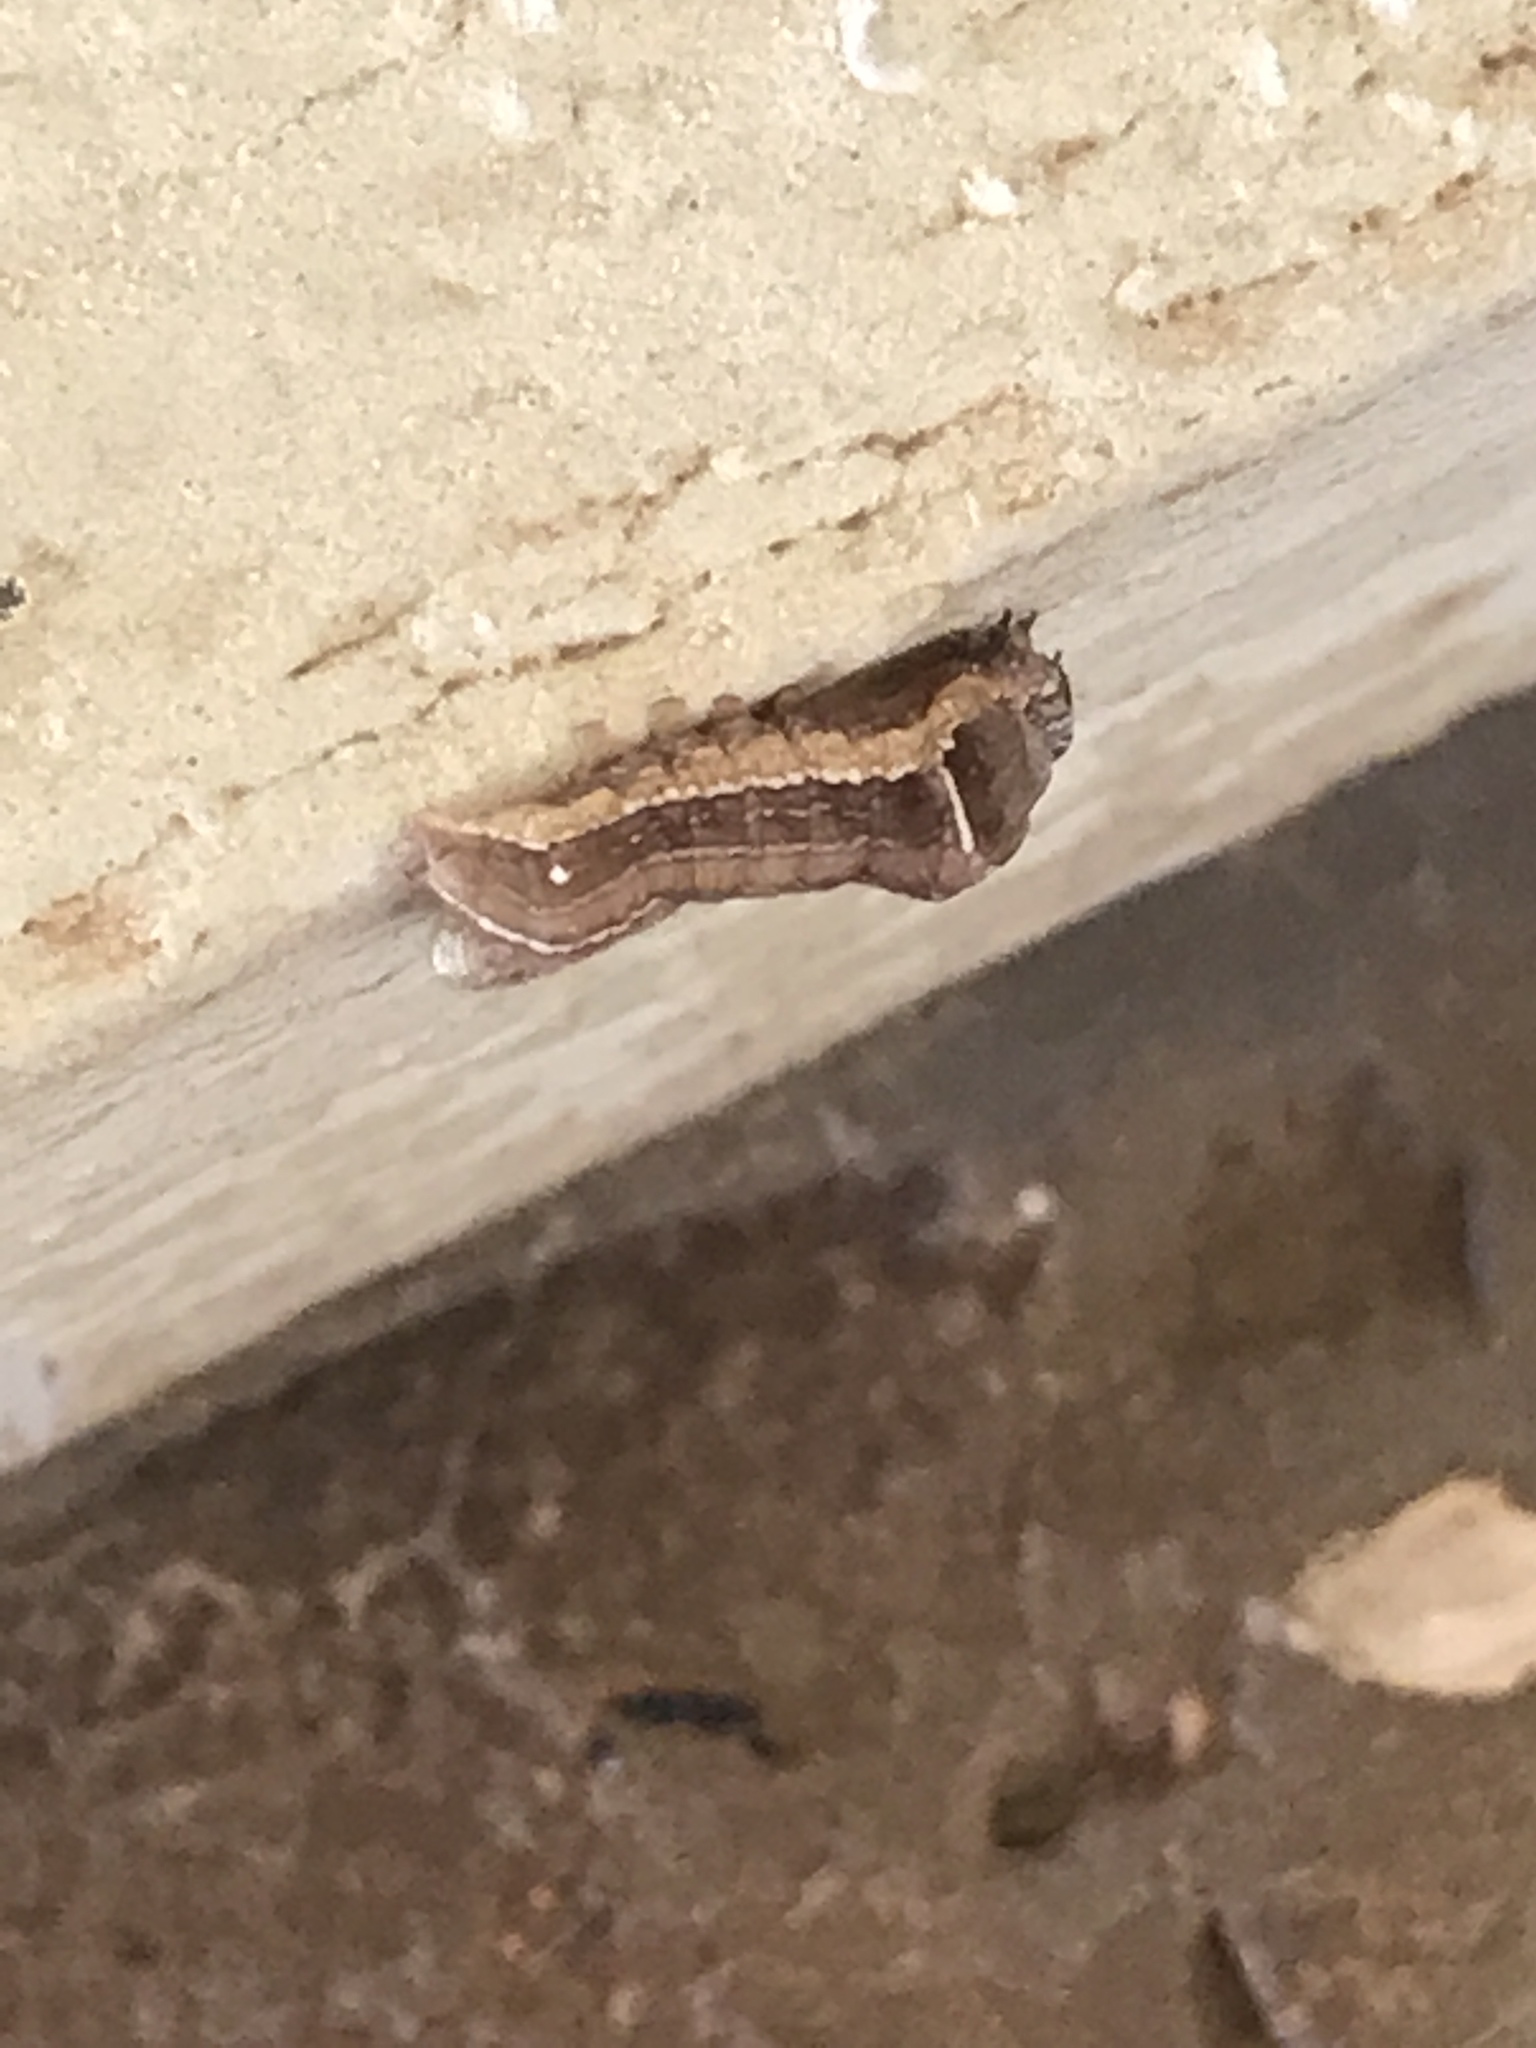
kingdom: Animalia
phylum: Arthropoda
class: Insecta
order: Lepidoptera
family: Noctuidae
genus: Galgula
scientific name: Galgula partita
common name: Wedgeling
